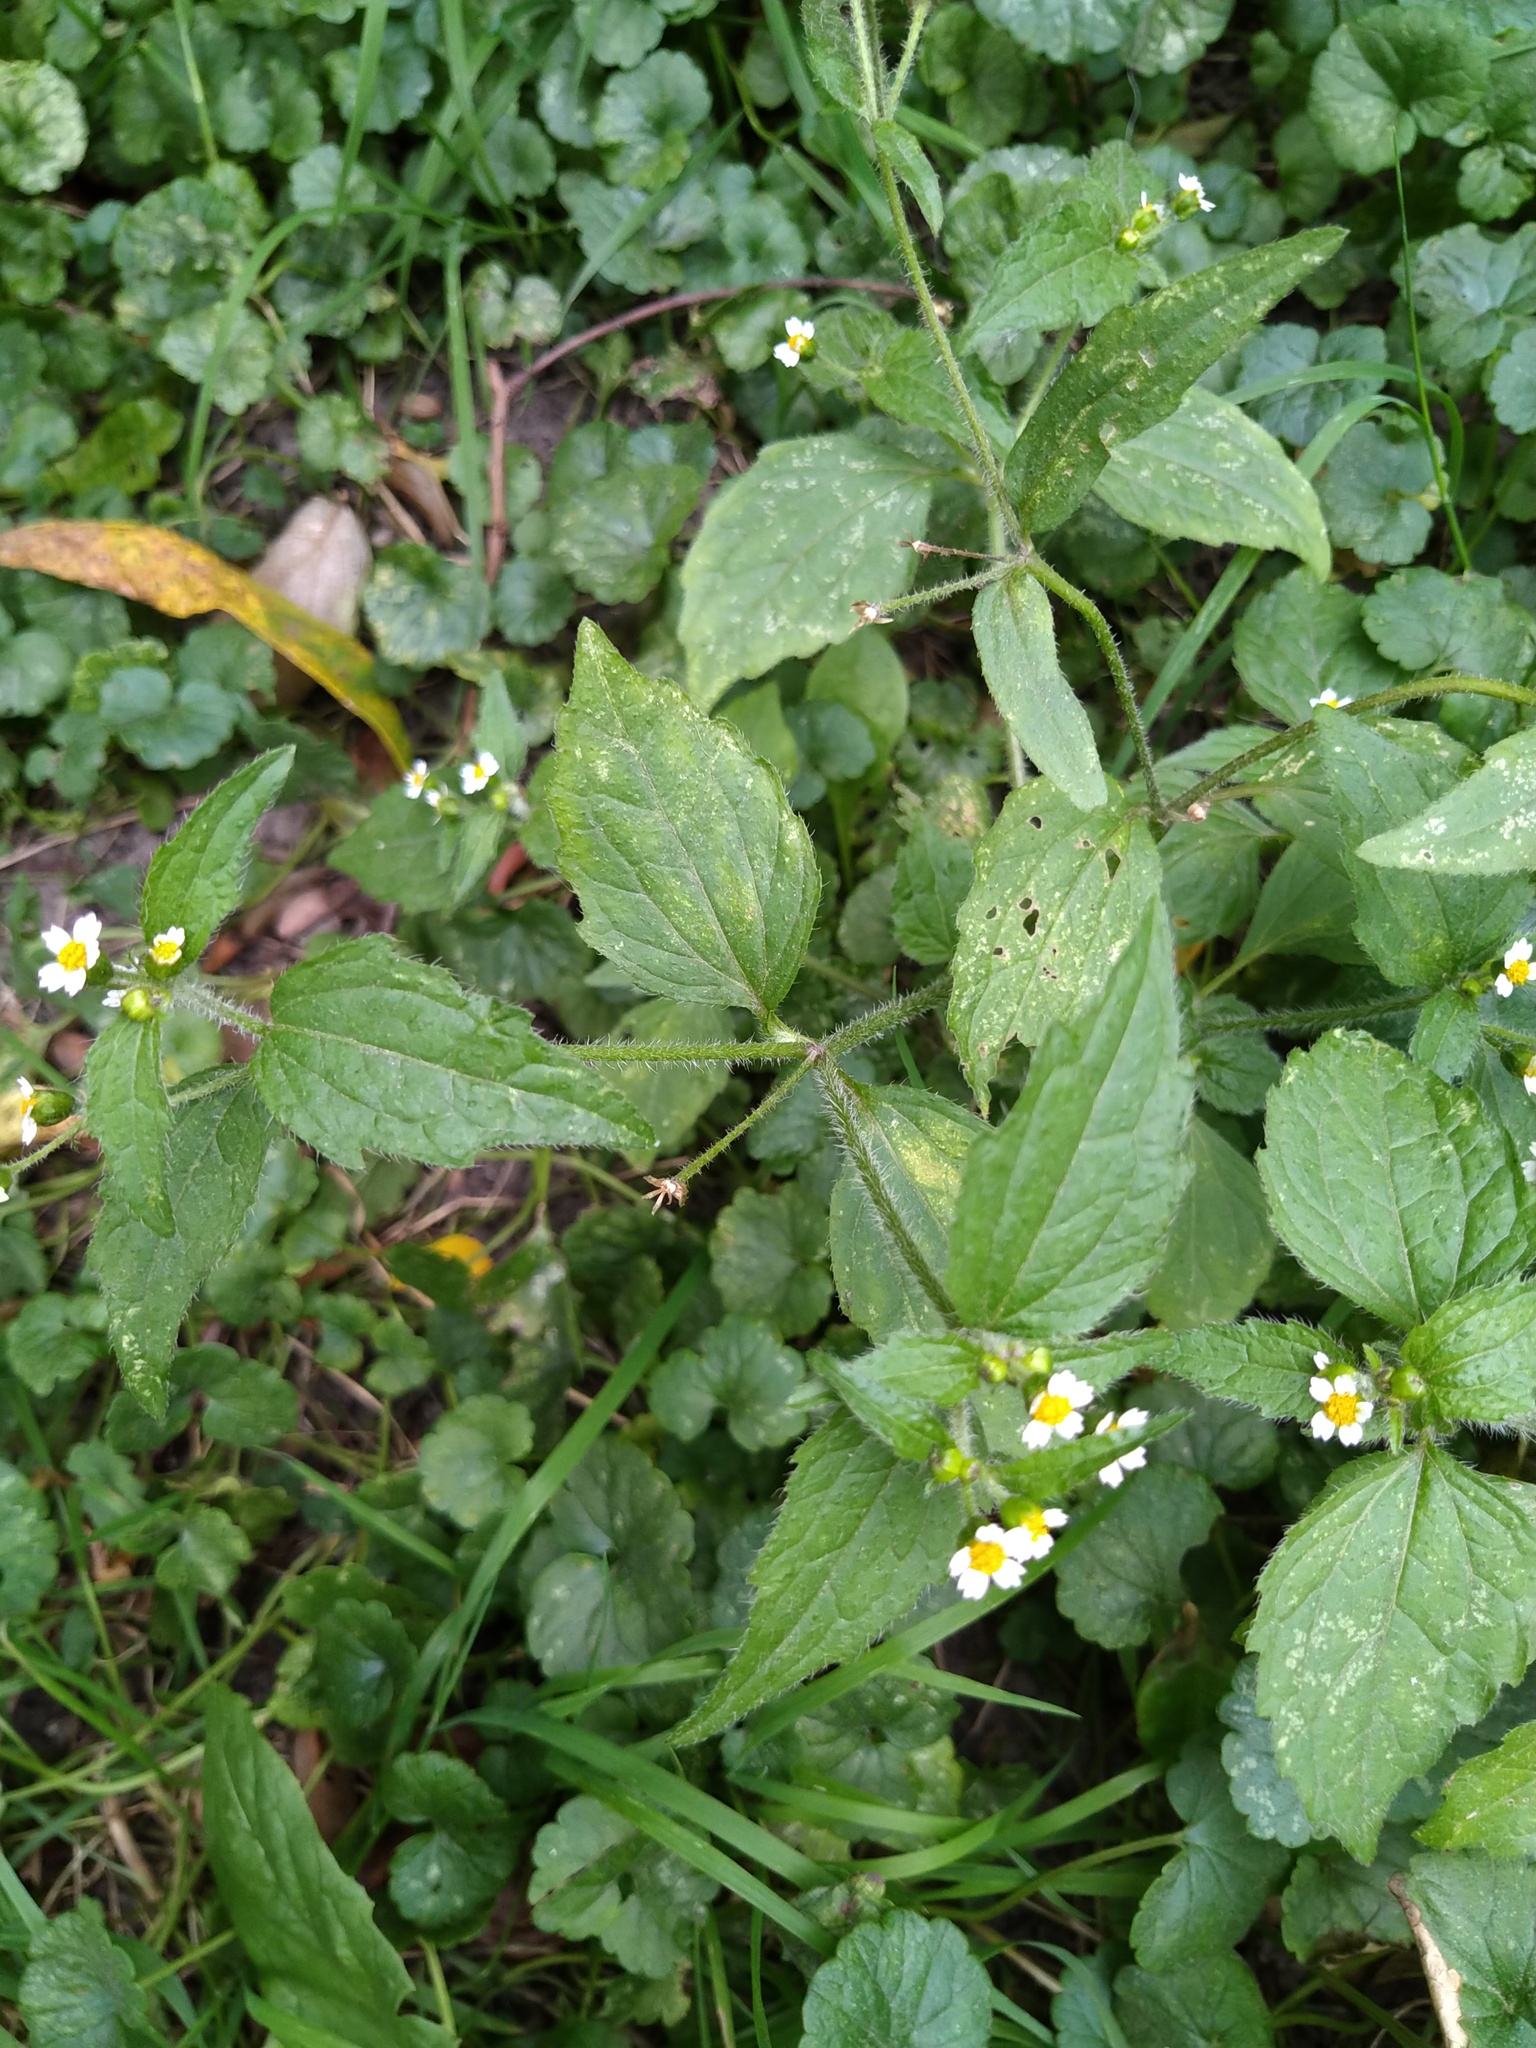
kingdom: Plantae
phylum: Tracheophyta
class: Magnoliopsida
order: Asterales
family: Asteraceae
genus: Galinsoga
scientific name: Galinsoga quadriradiata
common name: Shaggy soldier
